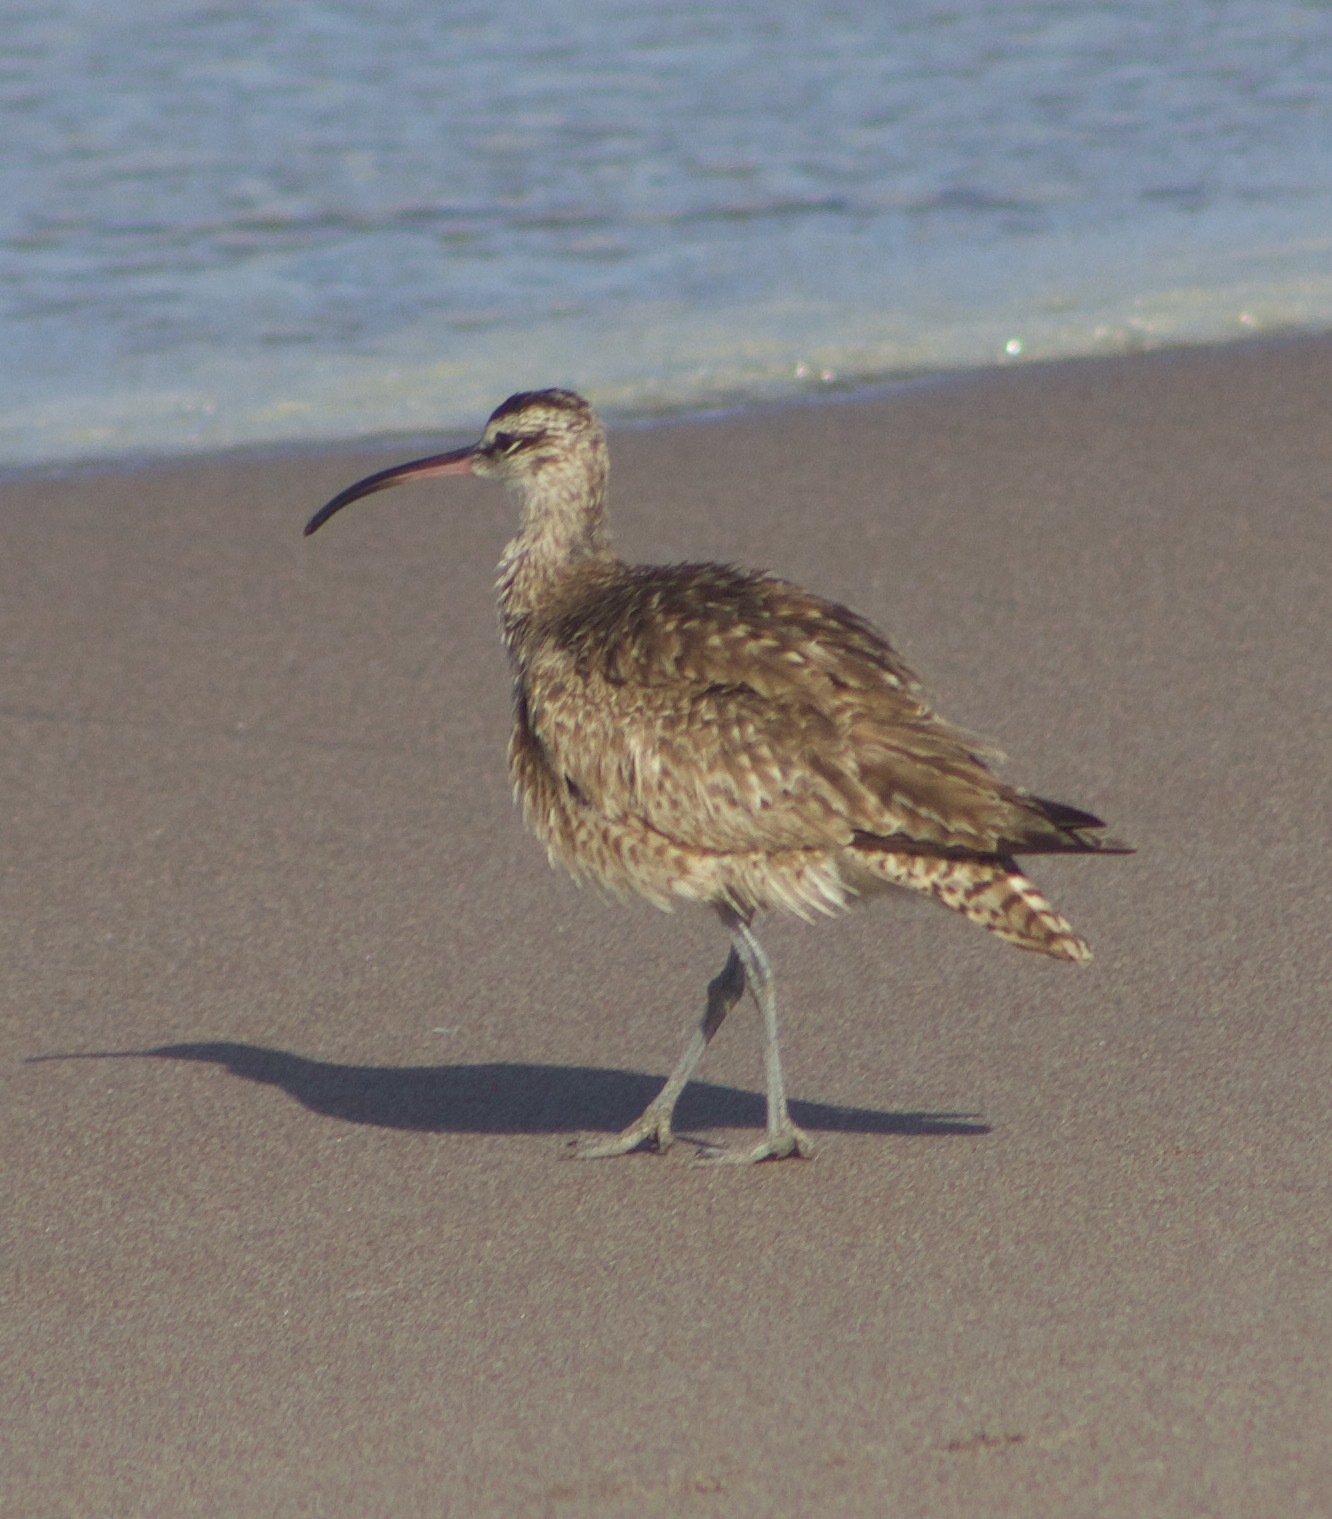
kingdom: Animalia
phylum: Chordata
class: Aves
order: Charadriiformes
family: Scolopacidae
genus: Numenius
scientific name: Numenius phaeopus
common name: Whimbrel
